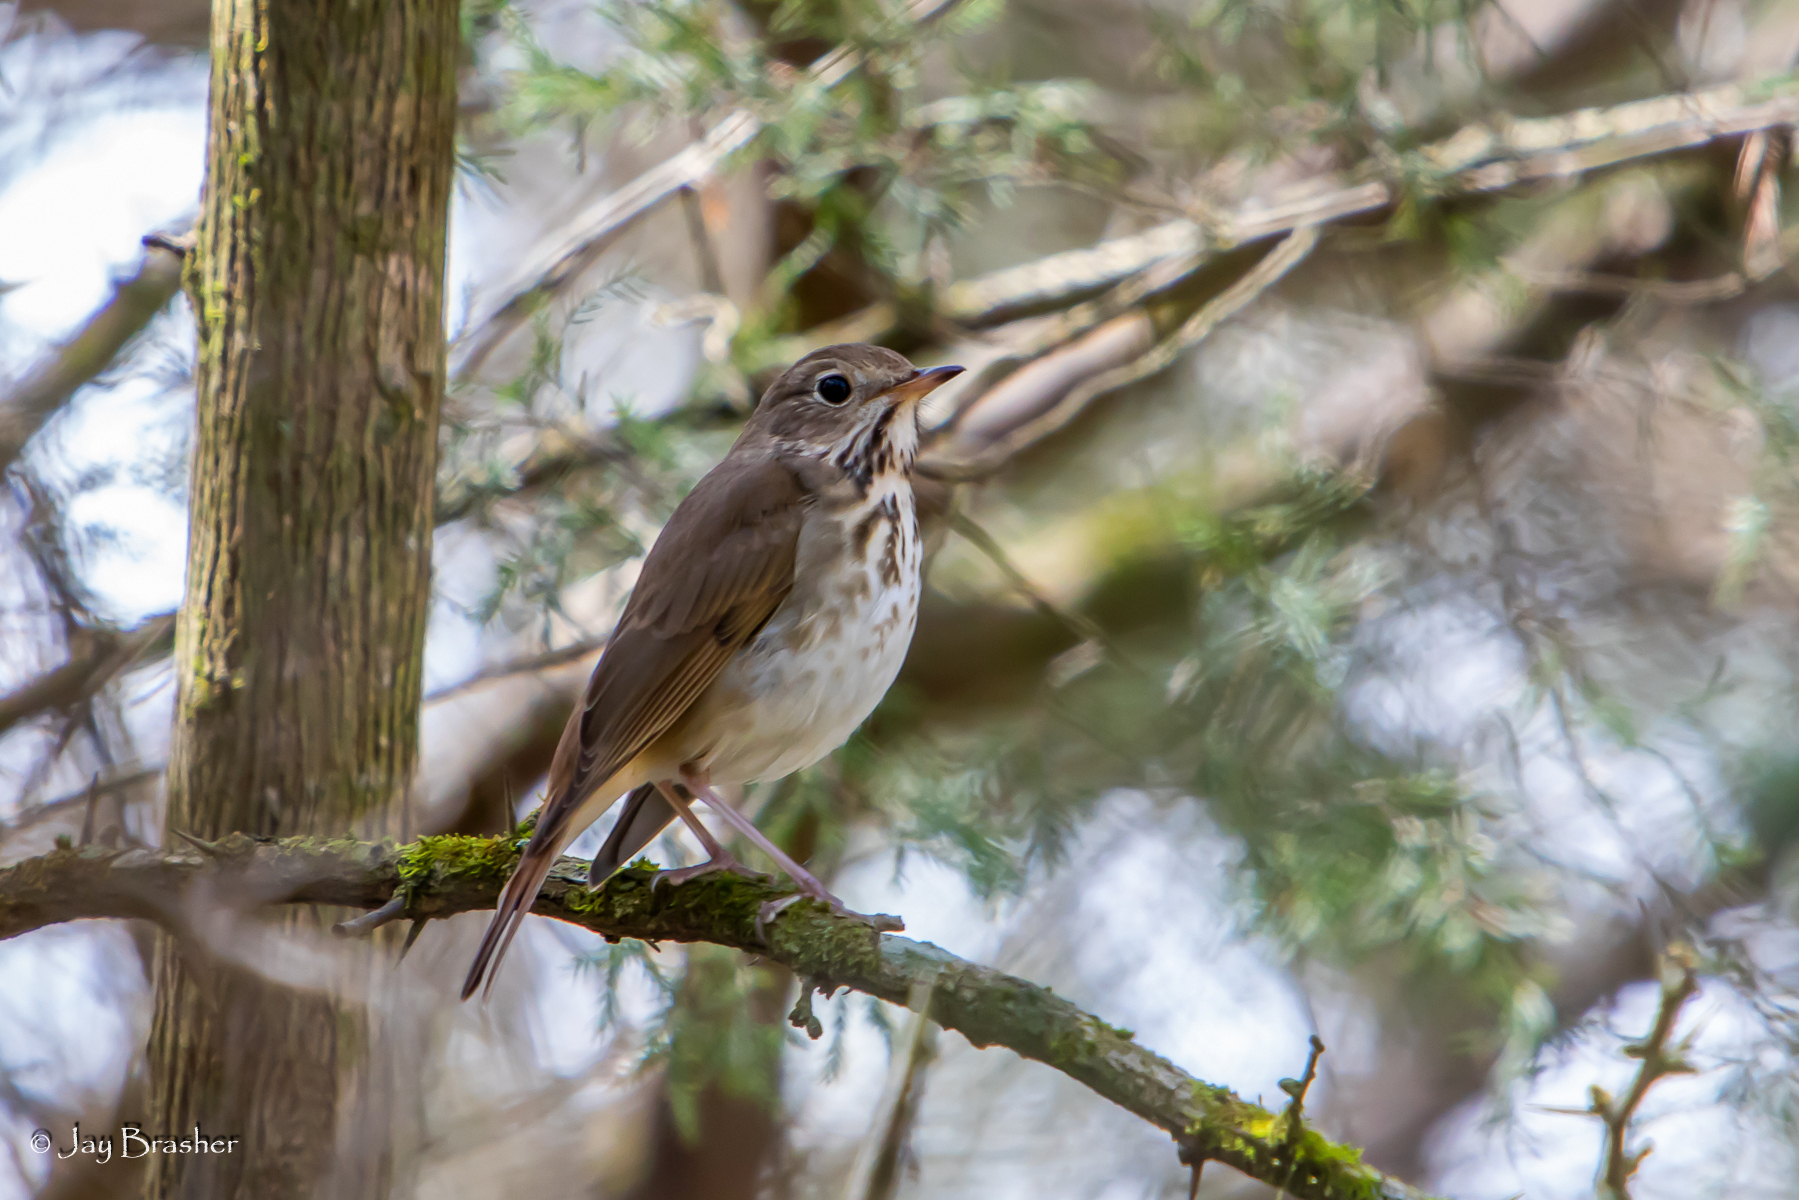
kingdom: Animalia
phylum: Chordata
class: Aves
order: Passeriformes
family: Turdidae
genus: Catharus
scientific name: Catharus guttatus
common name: Hermit thrush
